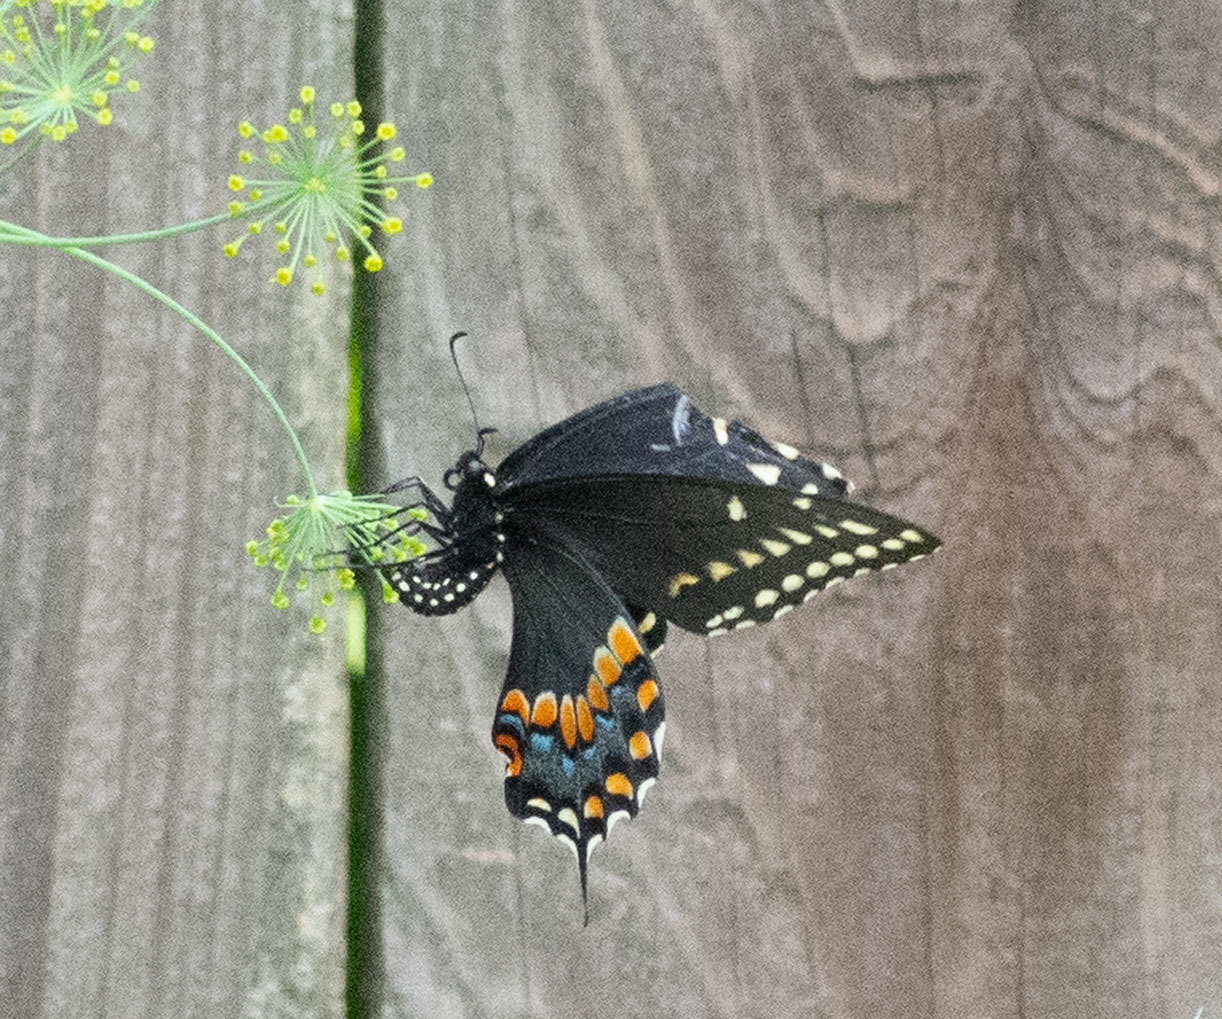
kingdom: Animalia
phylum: Arthropoda
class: Insecta
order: Lepidoptera
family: Papilionidae
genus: Papilio
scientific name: Papilio polyxenes
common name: Black swallowtail
